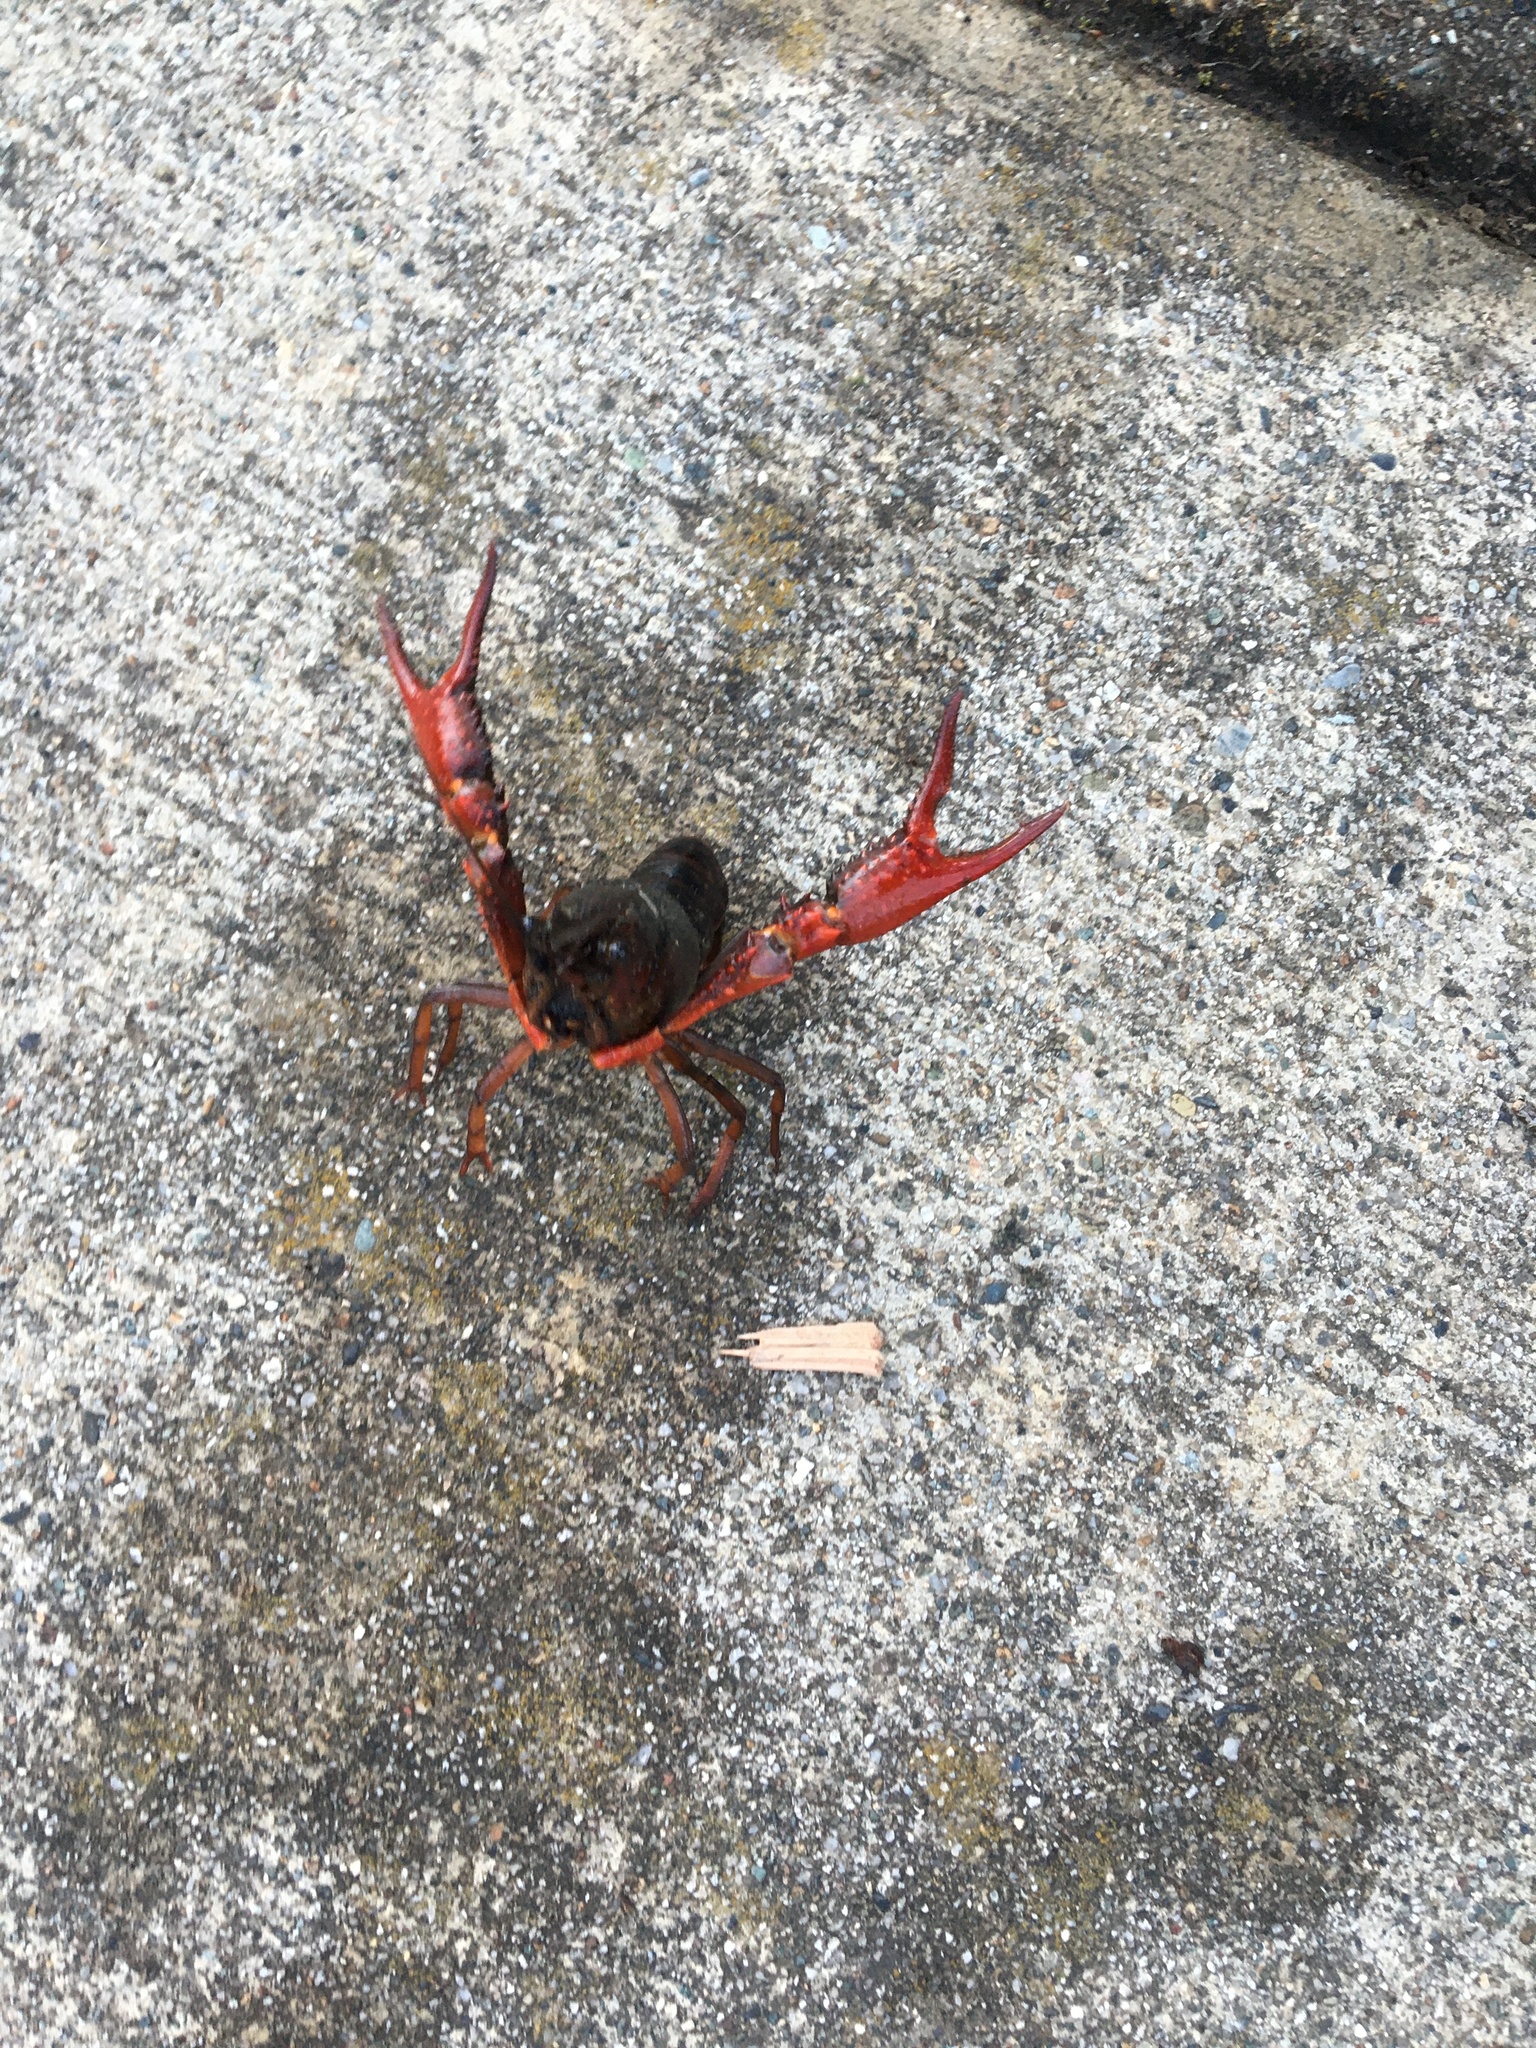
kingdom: Animalia
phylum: Arthropoda
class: Malacostraca
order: Decapoda
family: Cambaridae
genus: Procambarus
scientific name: Procambarus clarkii
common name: Red swamp crayfish
